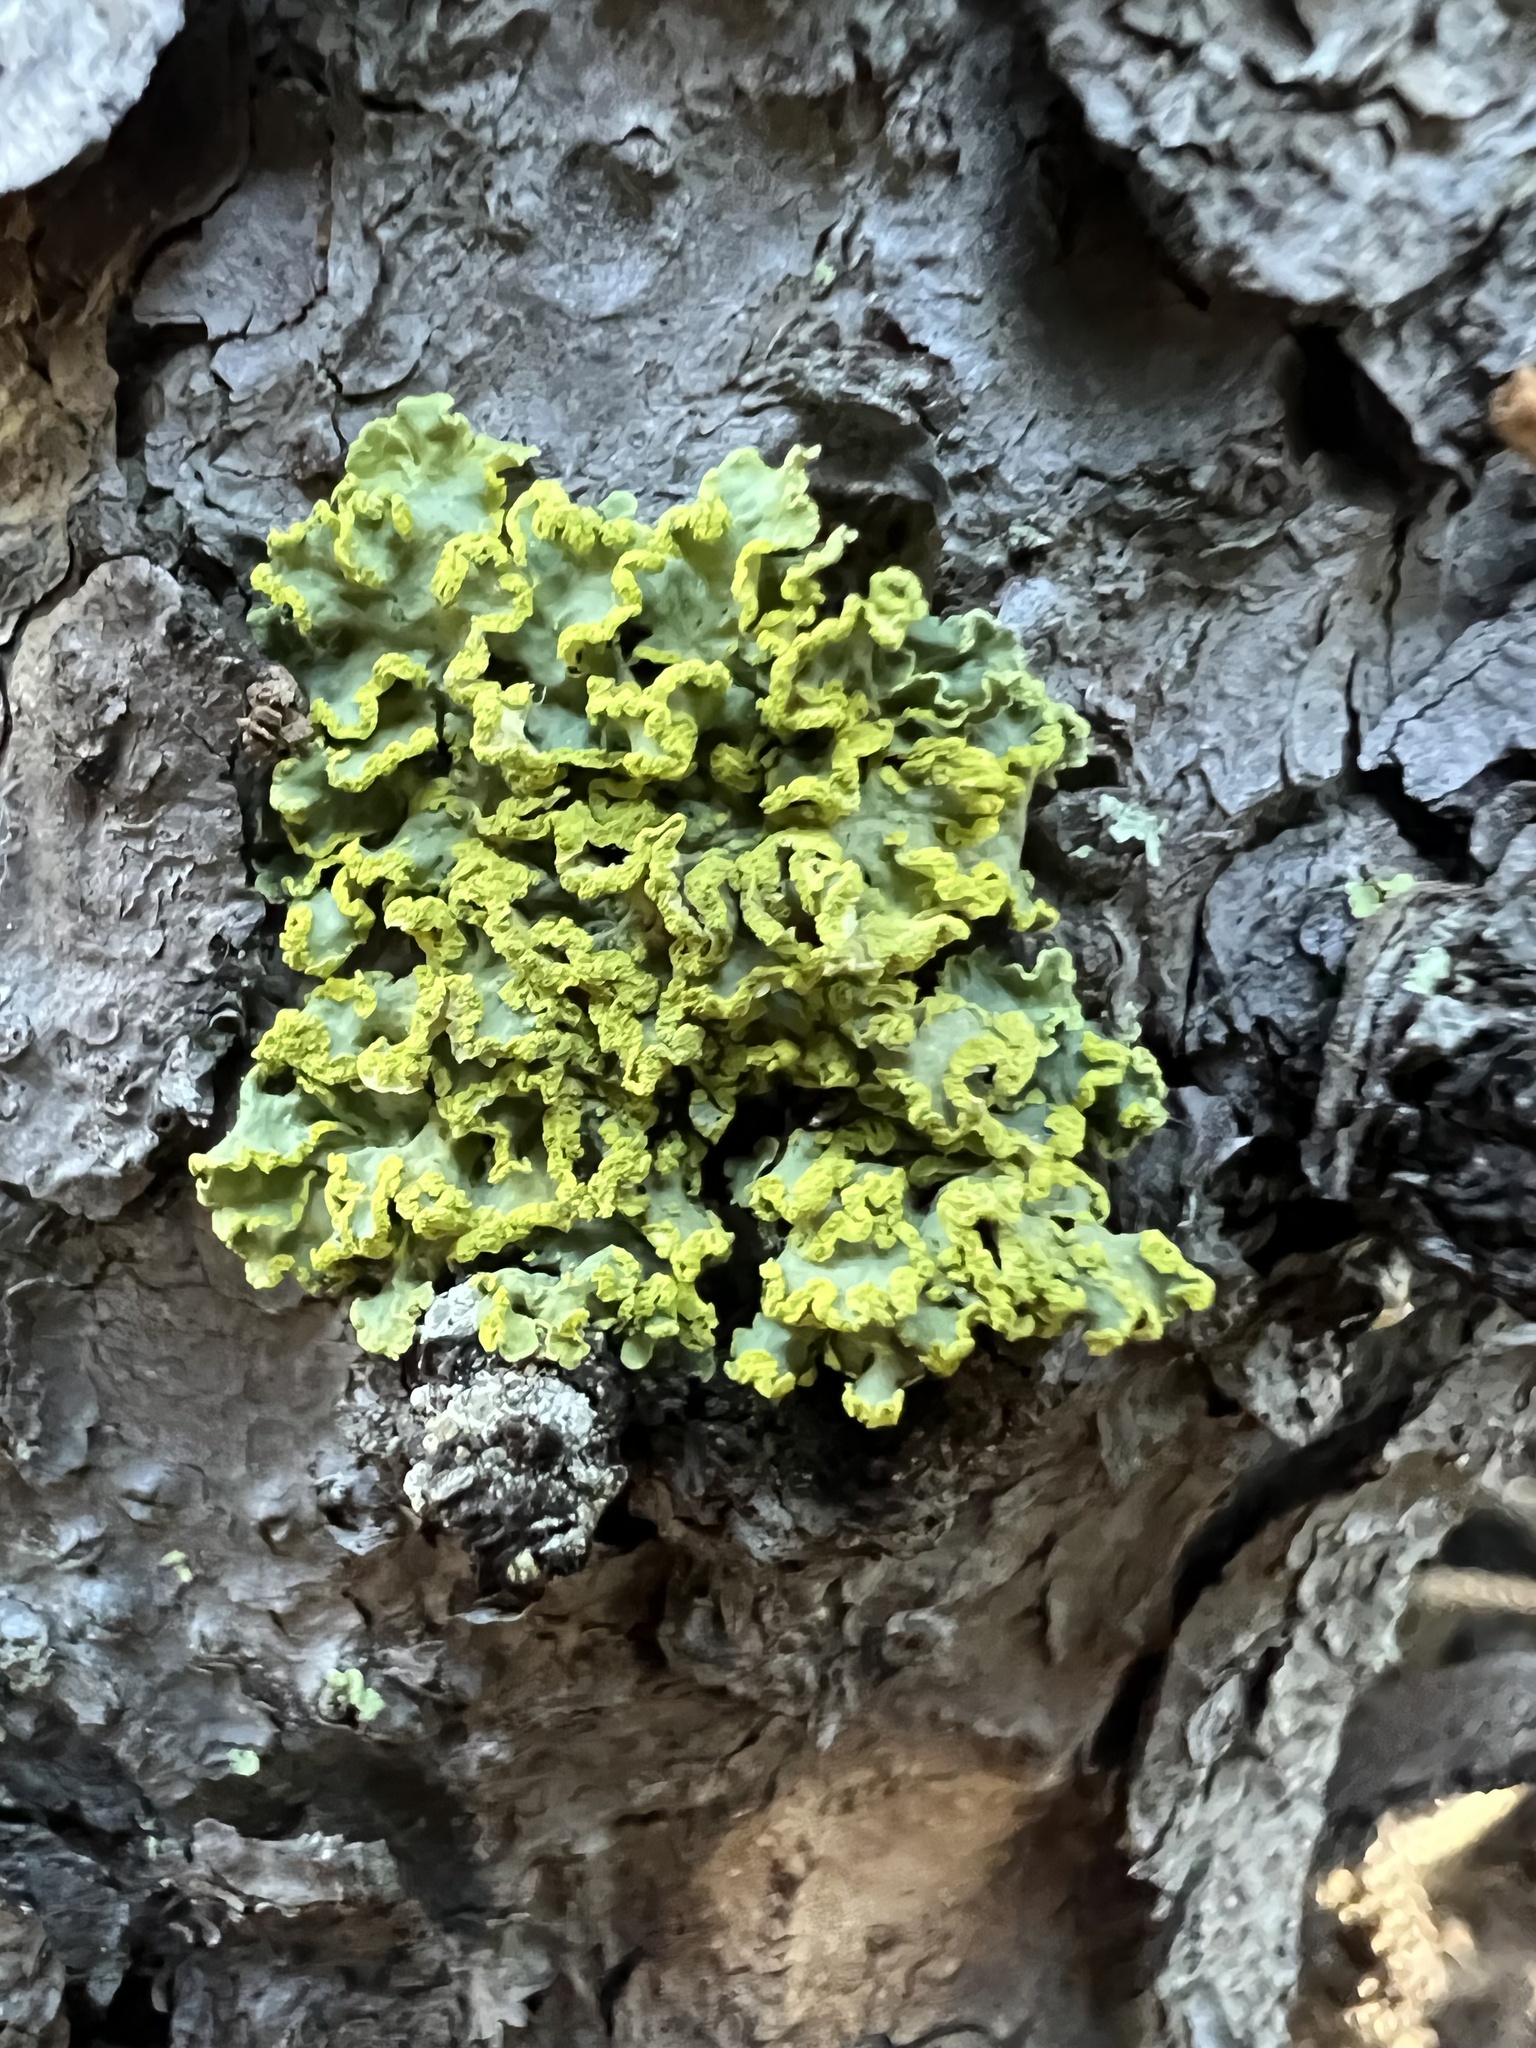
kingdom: Fungi
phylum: Ascomycota
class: Lecanoromycetes
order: Lecanorales
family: Parmeliaceae
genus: Vulpicida
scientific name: Vulpicida pinastri
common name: Powdered sunshine lichen
